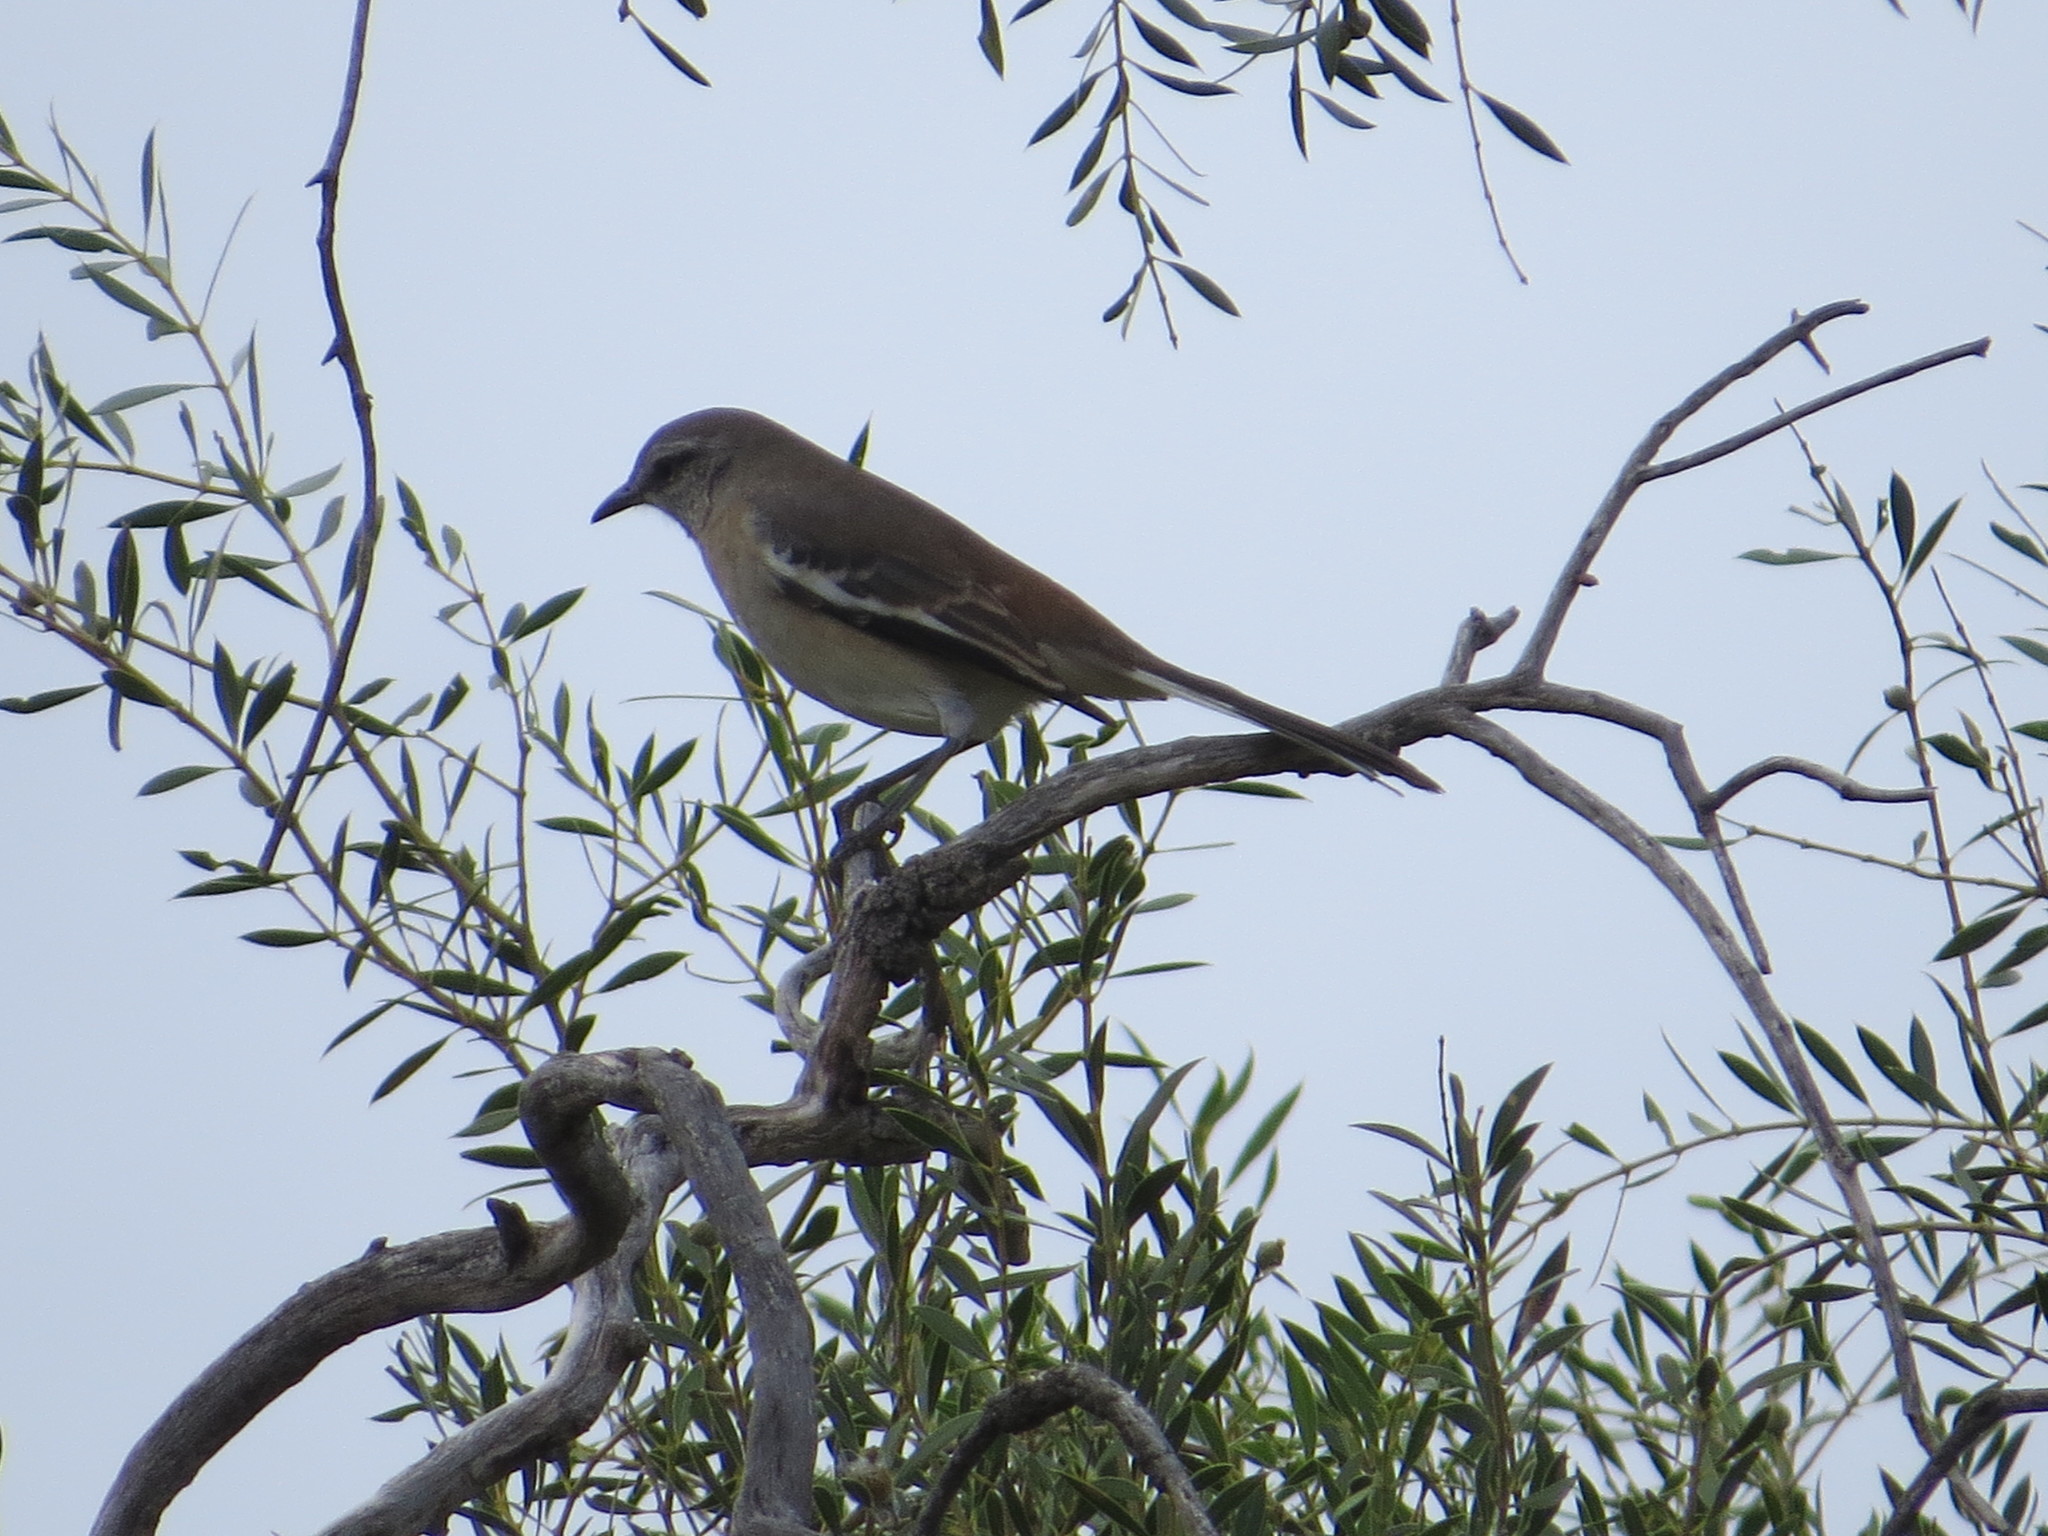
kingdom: Animalia
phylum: Chordata
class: Aves
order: Passeriformes
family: Mimidae
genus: Mimus
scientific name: Mimus triurus
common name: White-banded mockingbird
